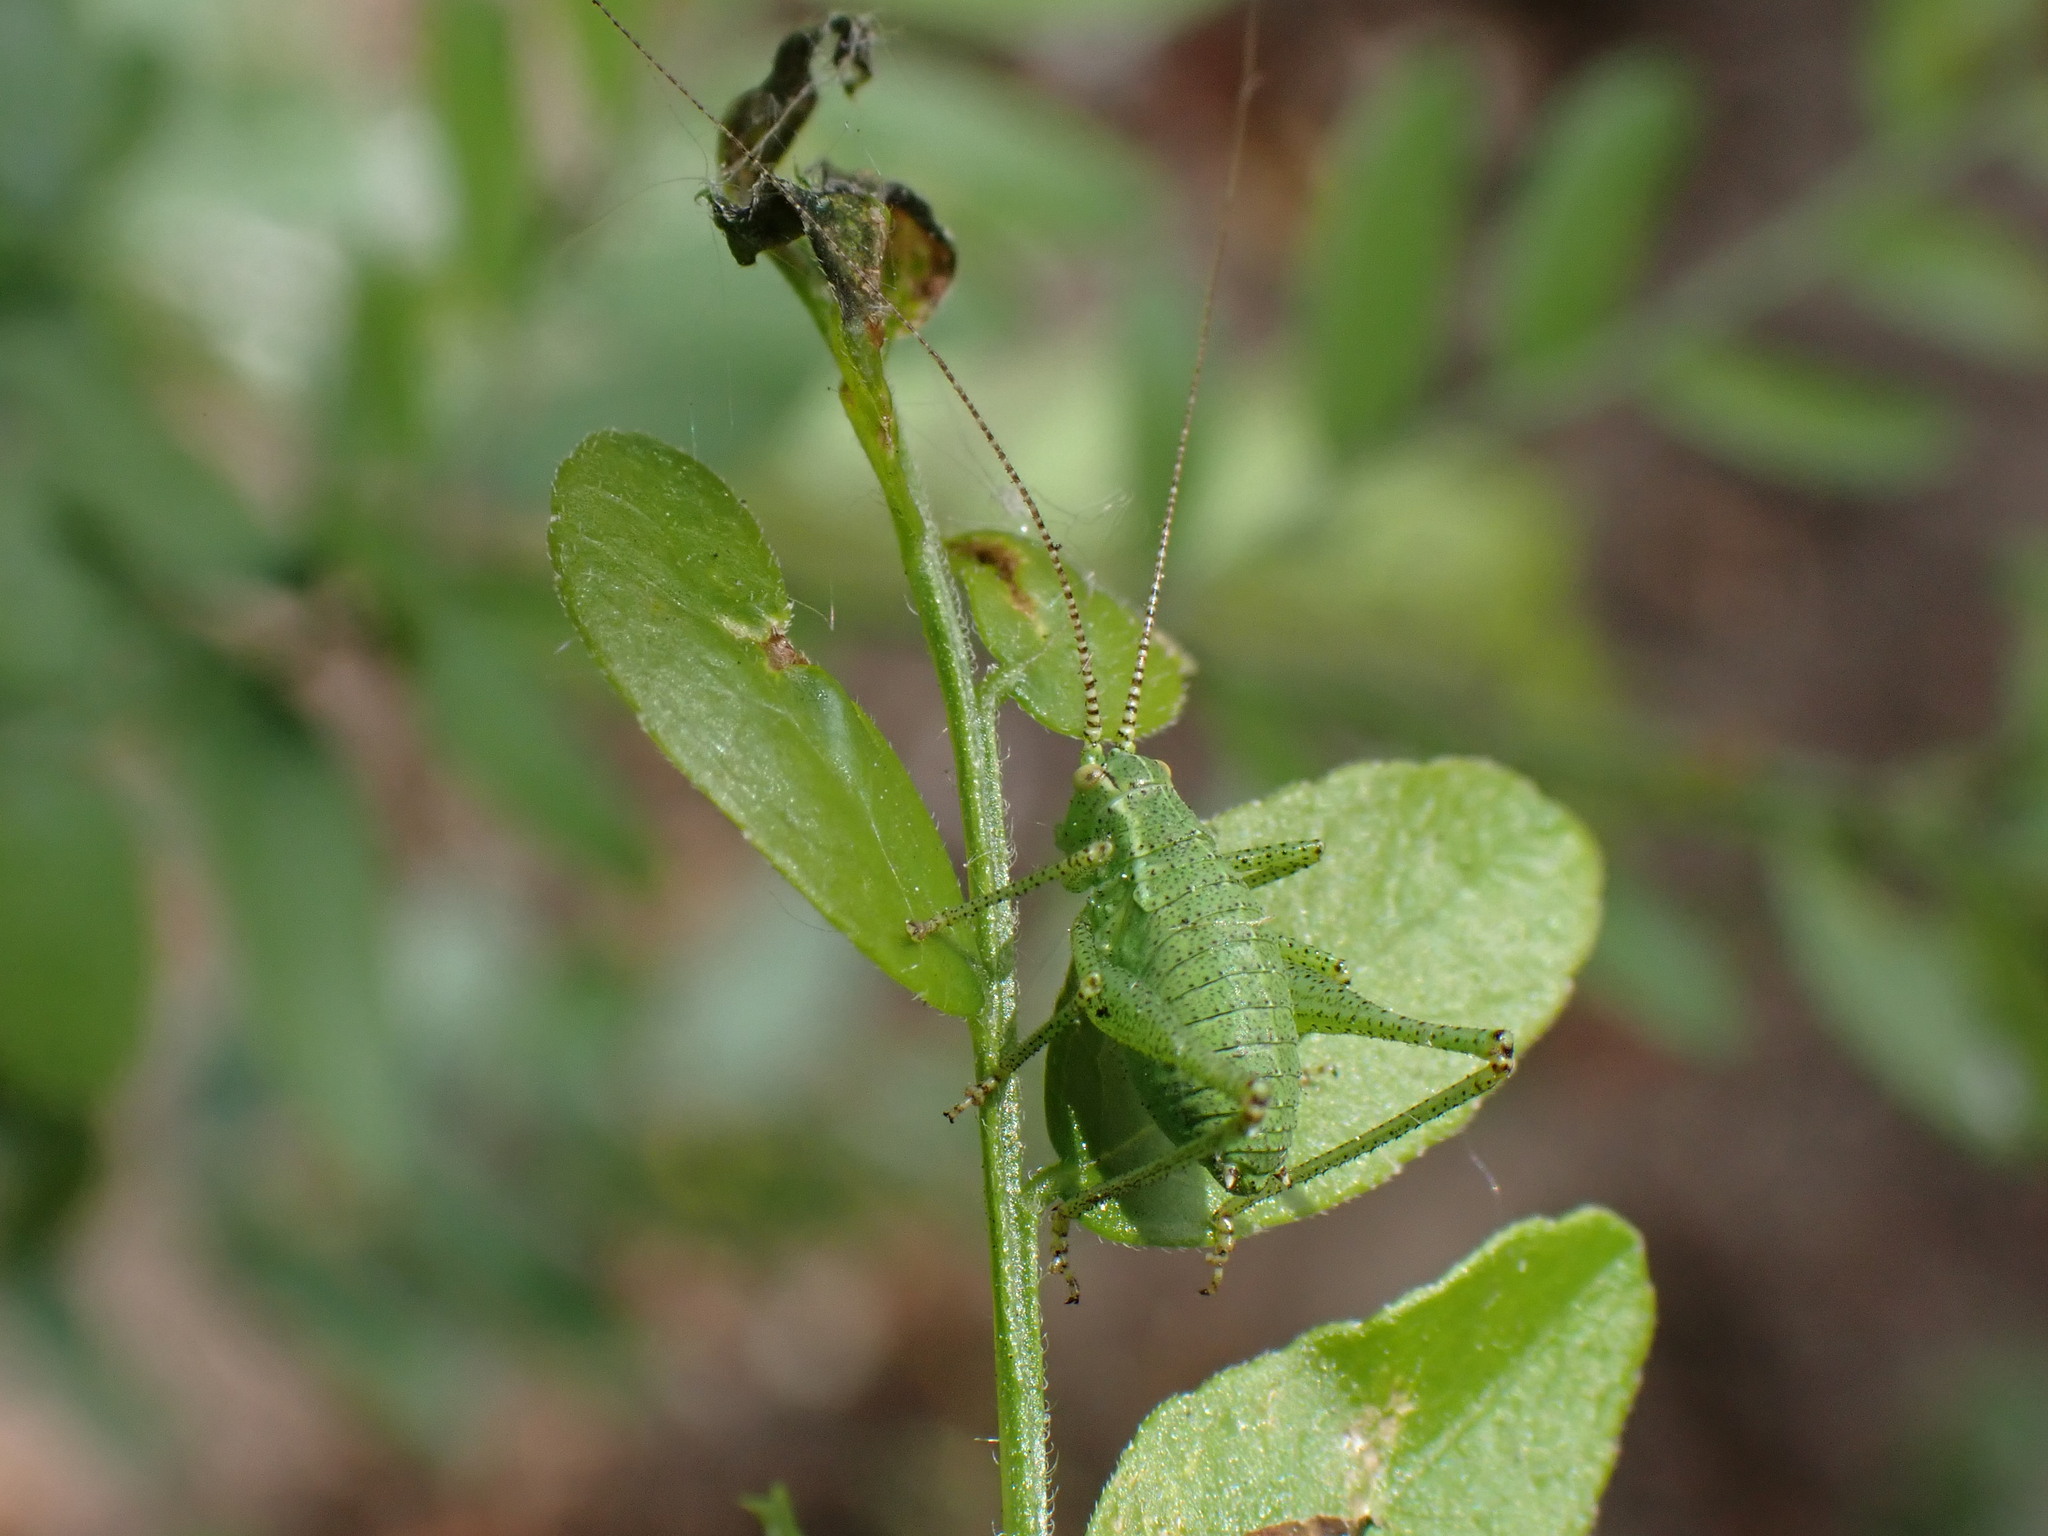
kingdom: Animalia
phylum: Arthropoda
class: Insecta
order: Orthoptera
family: Tettigoniidae
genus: Leptophyes
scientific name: Leptophyes punctatissima
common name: Speckled bush-cricket
